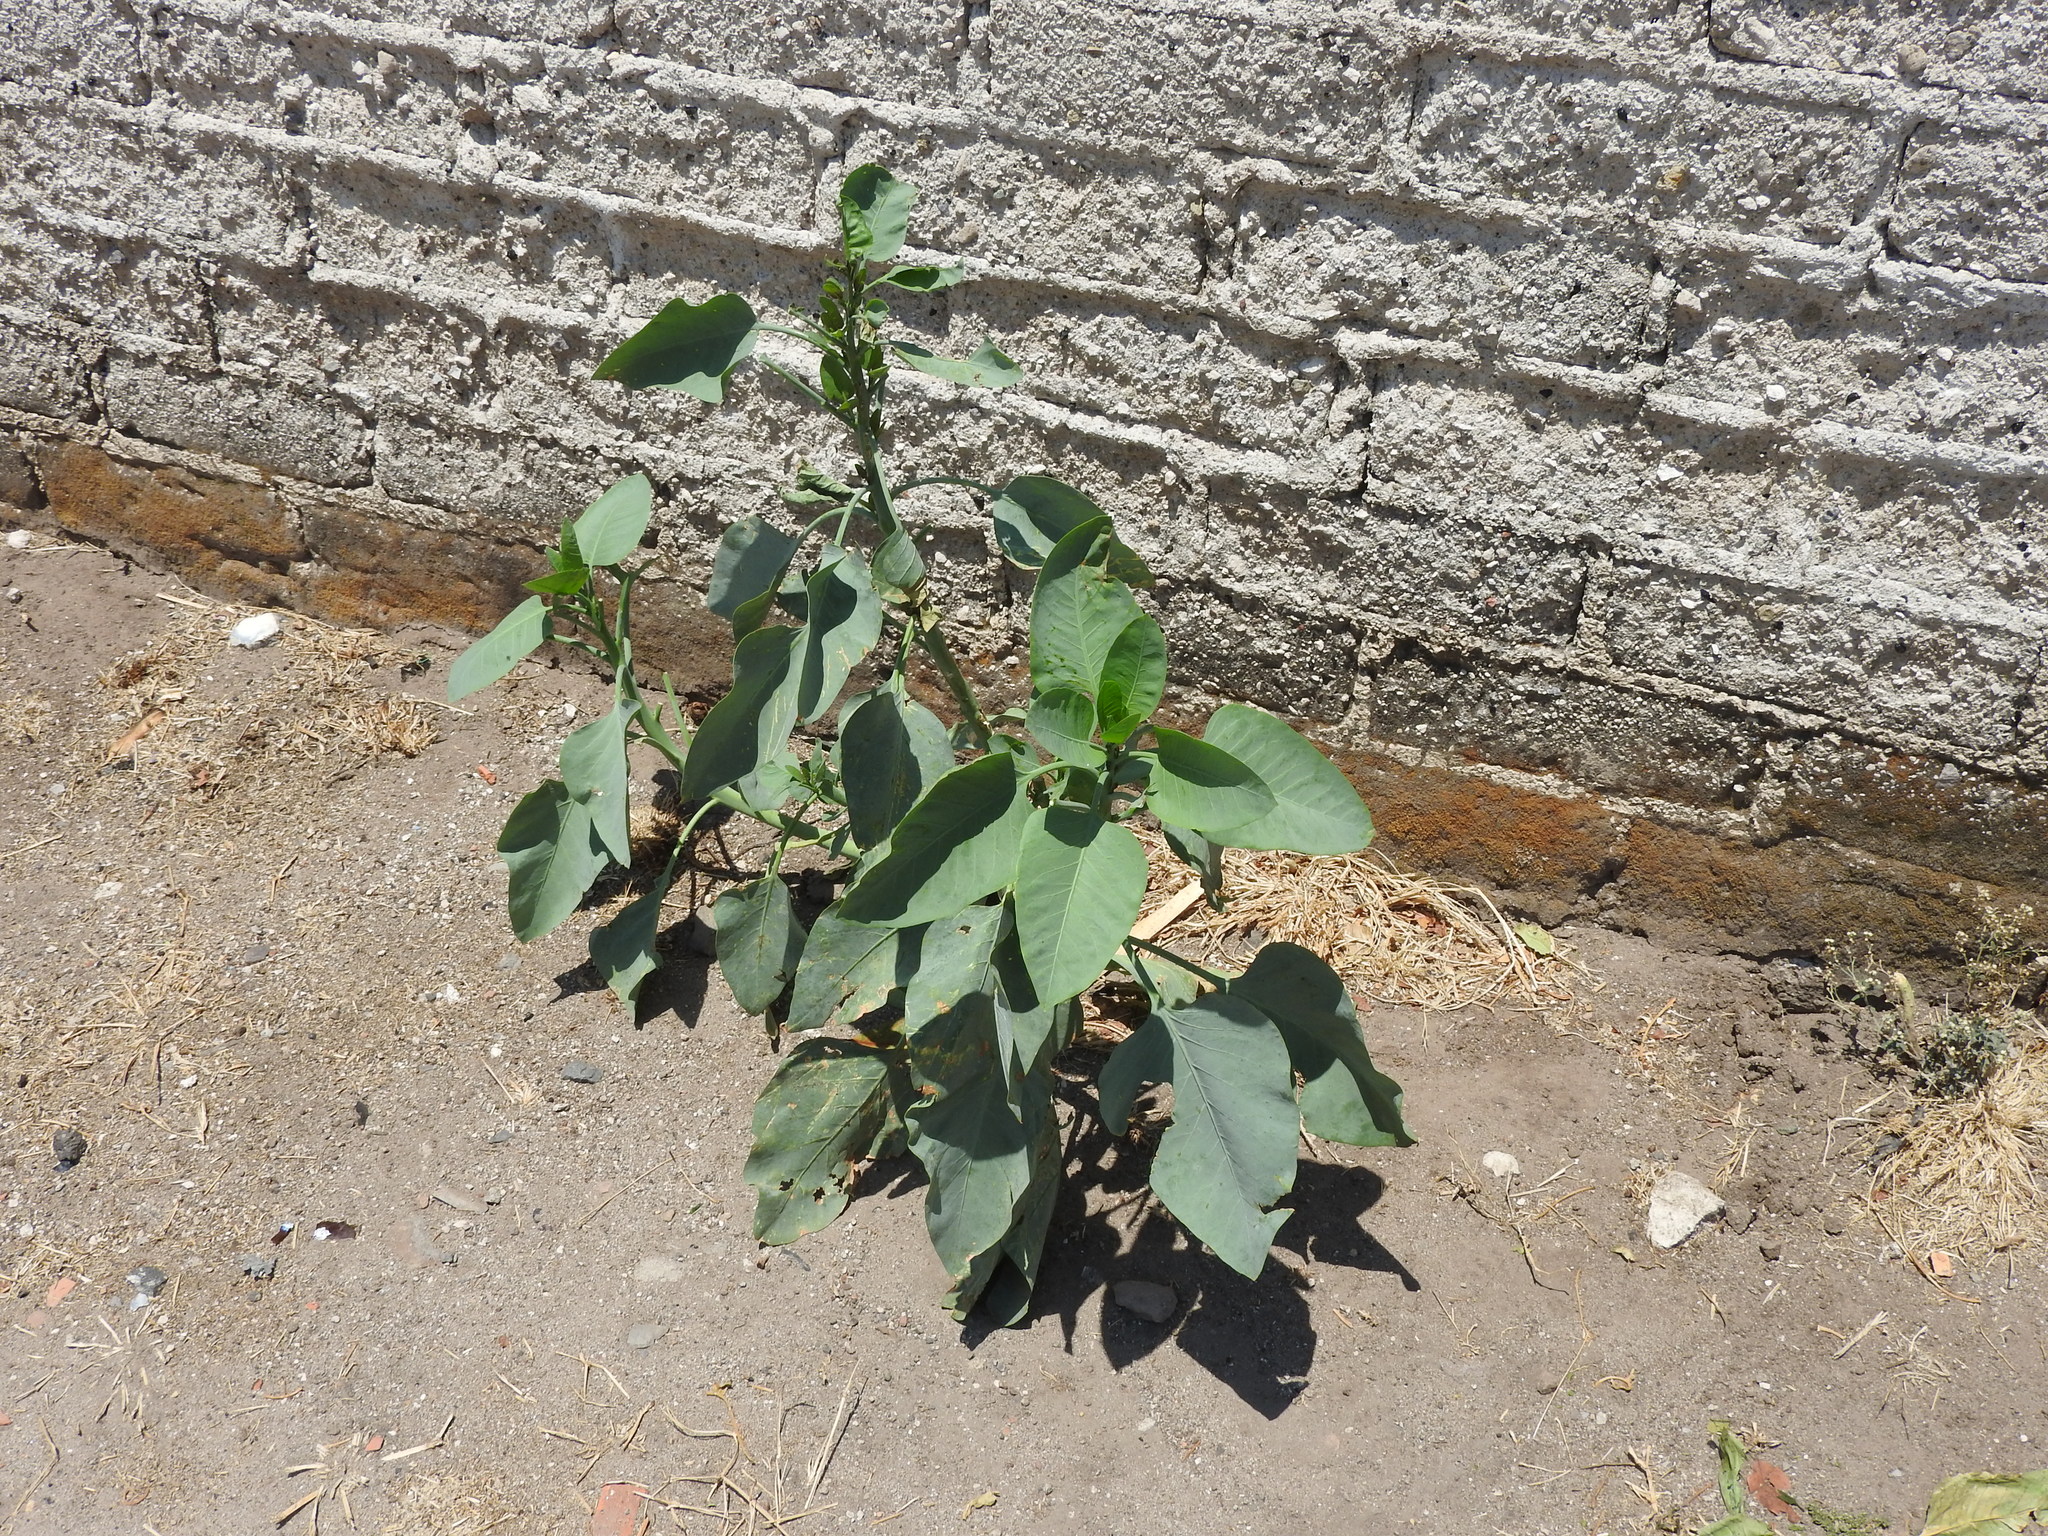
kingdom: Plantae
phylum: Tracheophyta
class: Magnoliopsida
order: Solanales
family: Solanaceae
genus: Nicotiana
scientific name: Nicotiana glauca
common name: Tree tobacco
